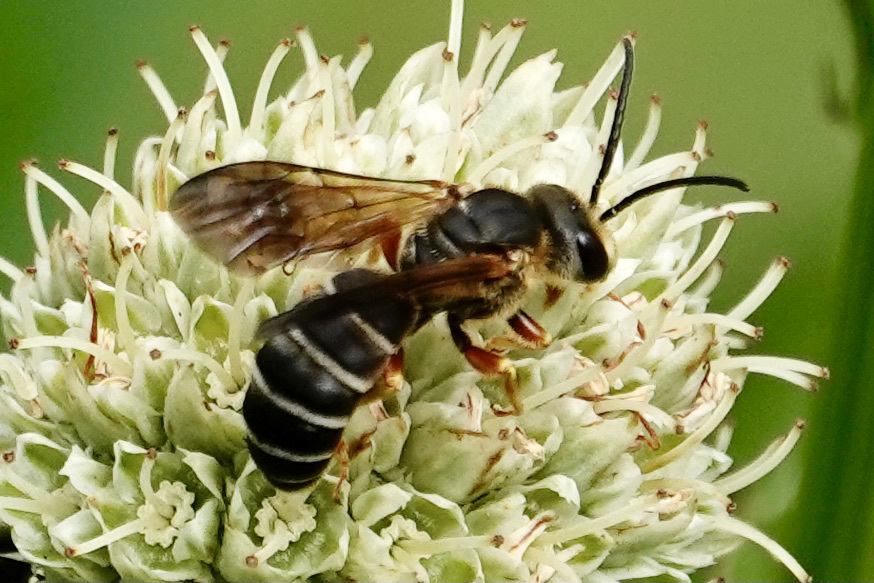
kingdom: Animalia
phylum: Arthropoda
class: Insecta
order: Hymenoptera
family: Halictidae
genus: Halictus
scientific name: Halictus parallelus
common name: Parallel-striped sweat bee
